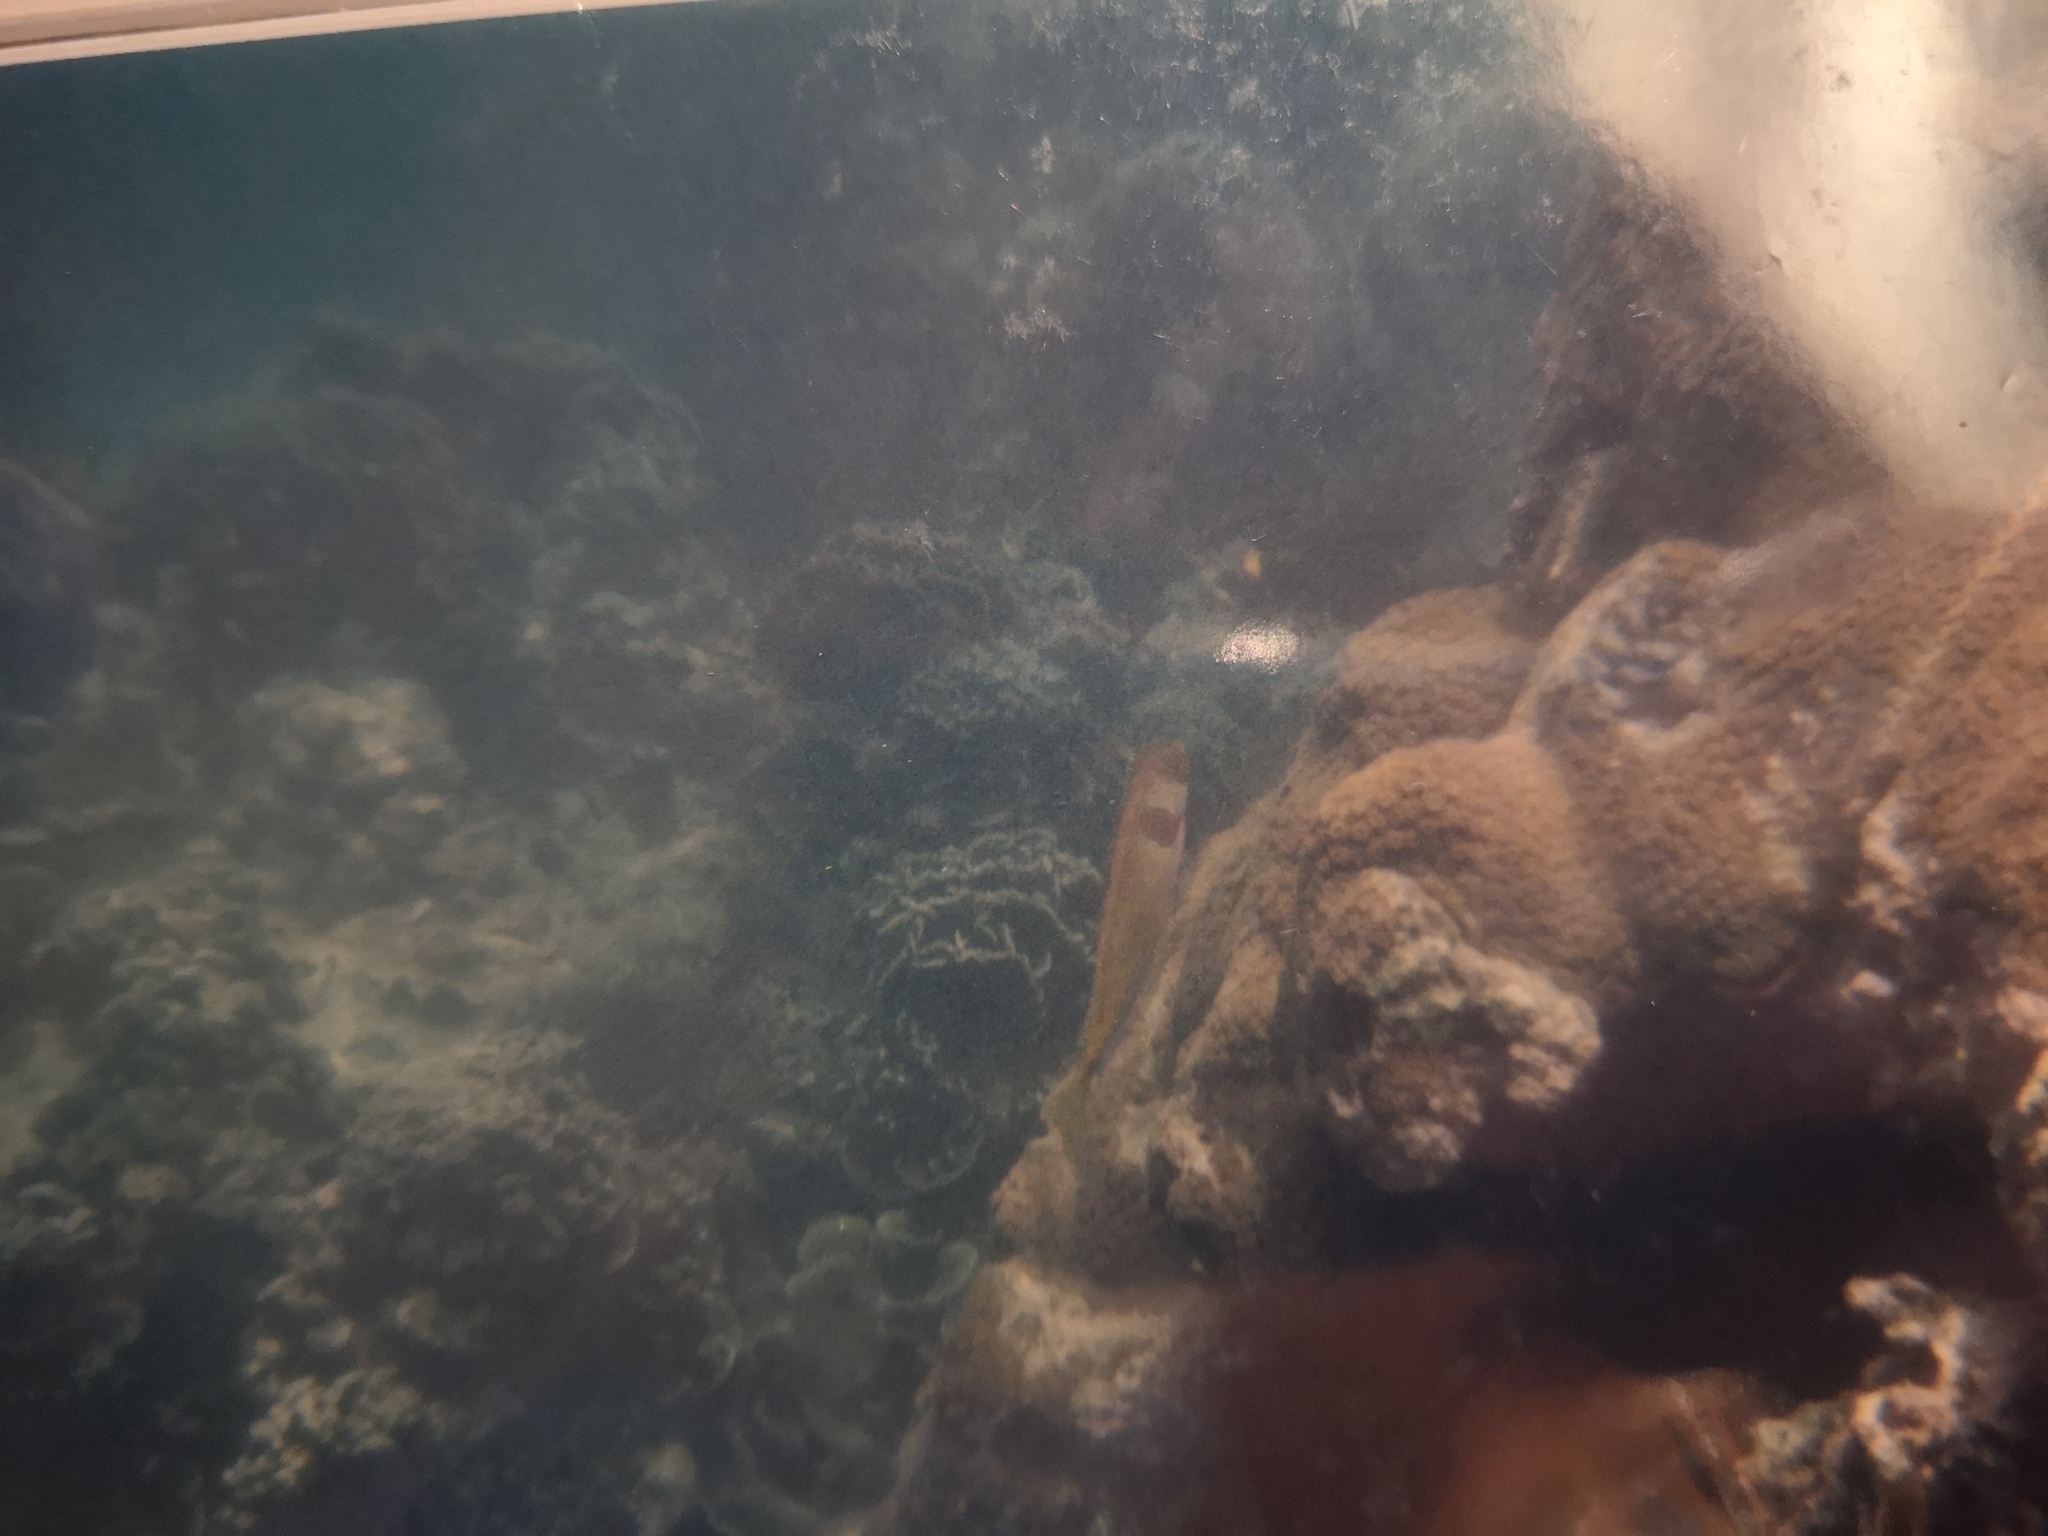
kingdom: Animalia
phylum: Chordata
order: Perciformes
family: Siganidae
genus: Siganus
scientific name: Siganus virgatus
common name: Barhead spinefoot
